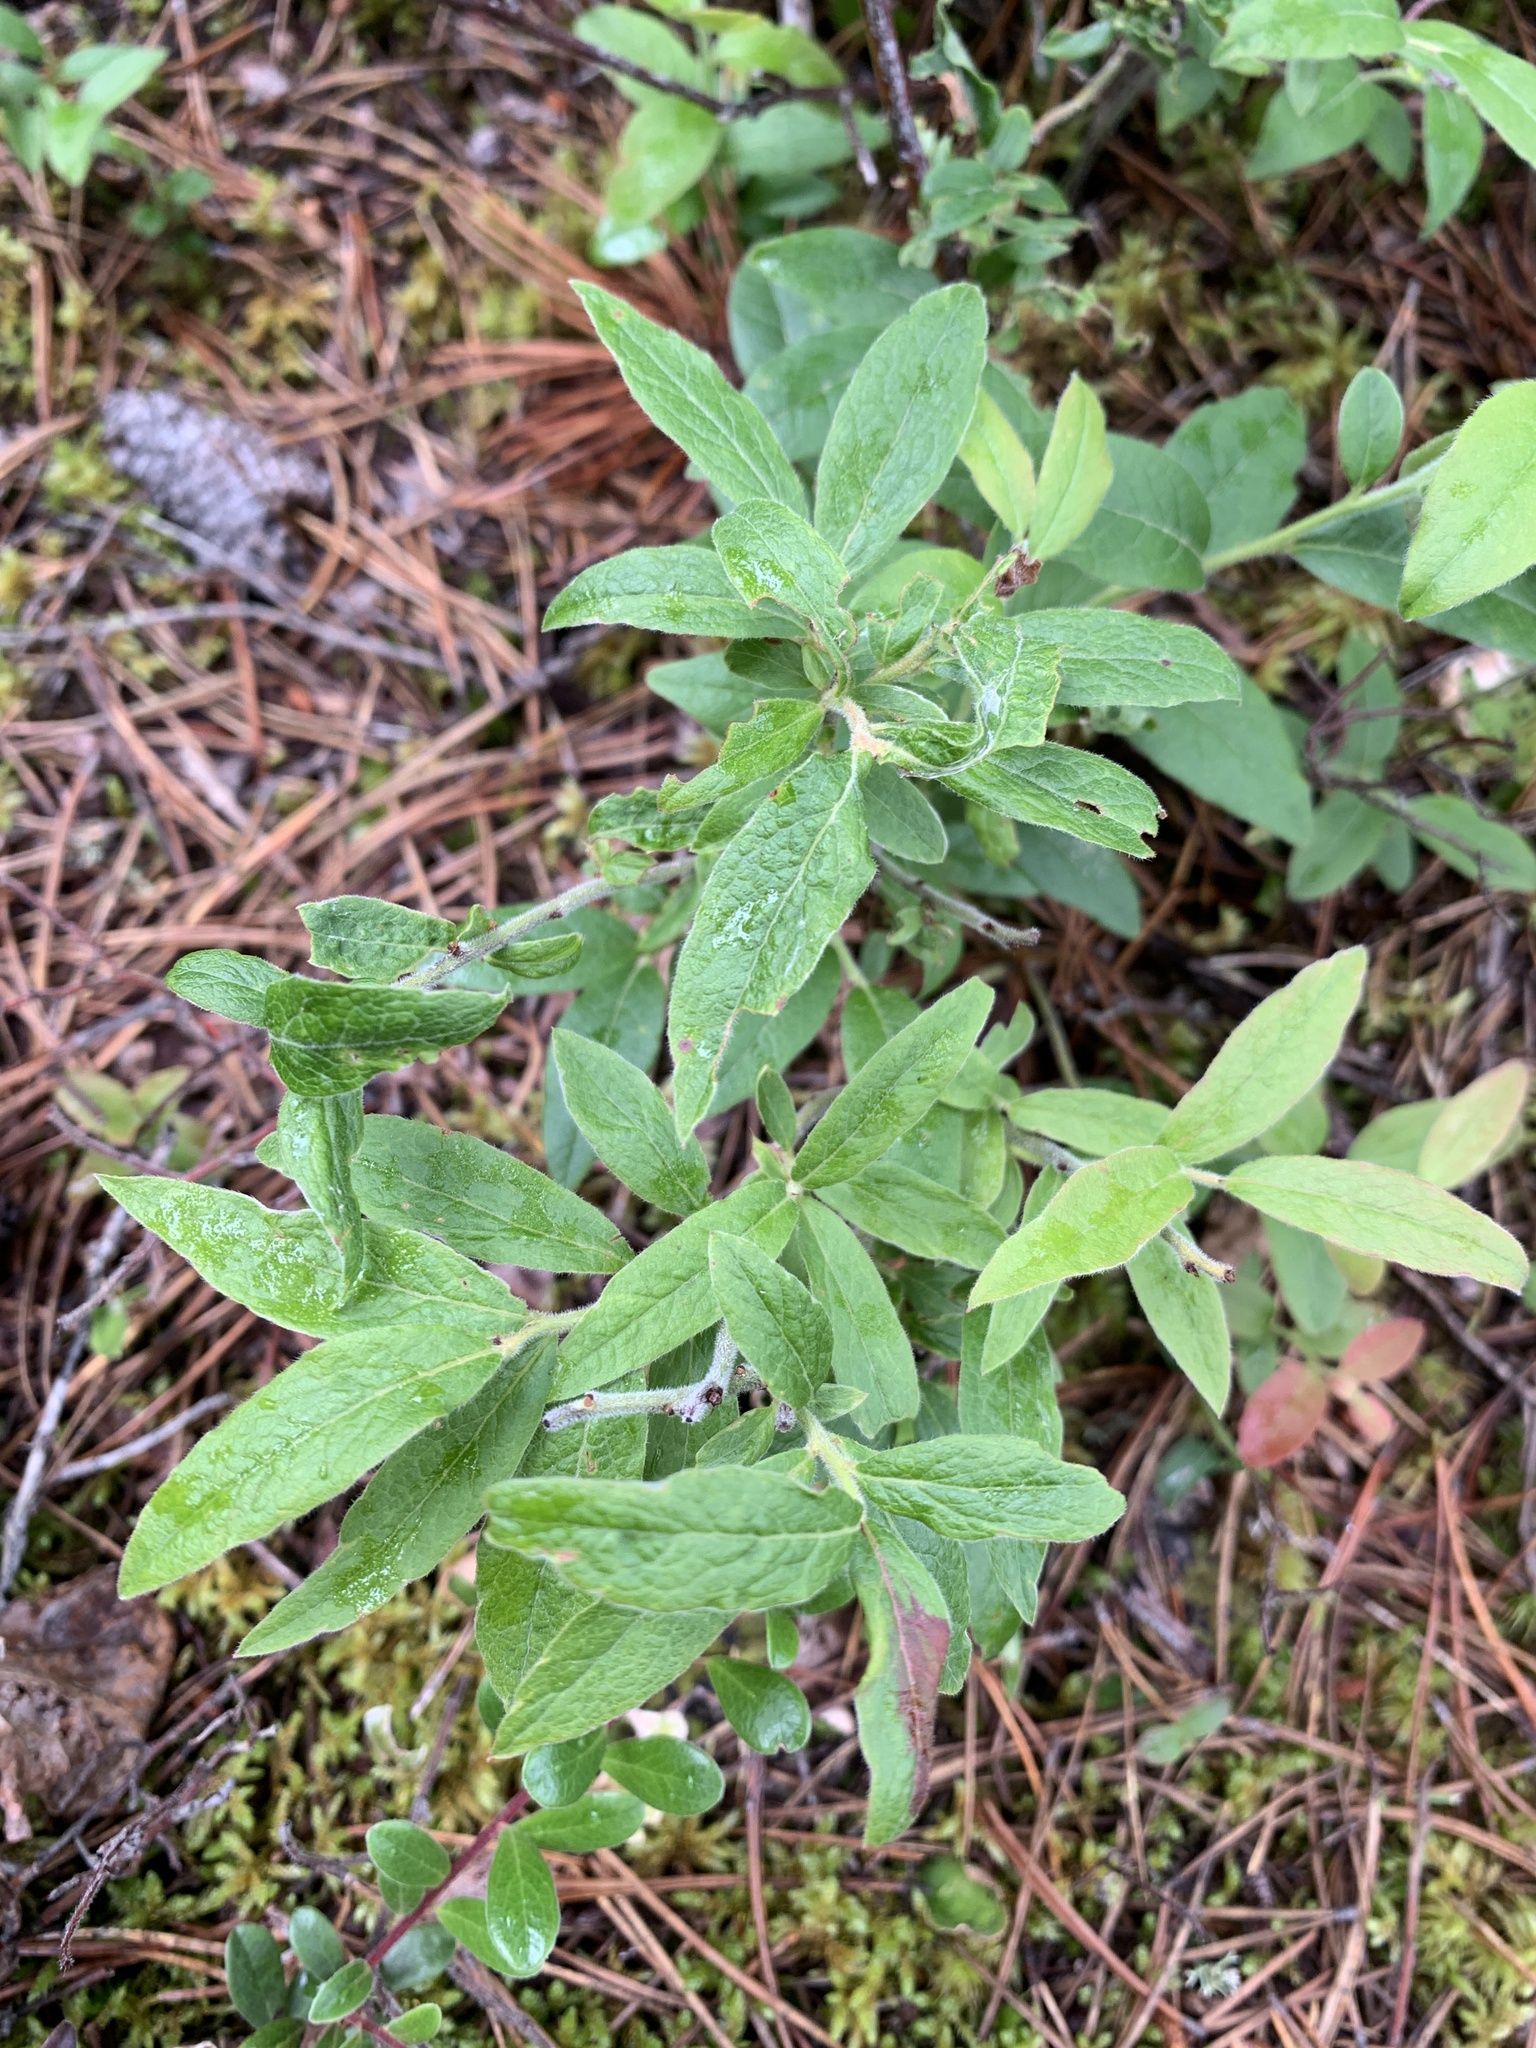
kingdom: Plantae
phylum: Tracheophyta
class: Magnoliopsida
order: Ericales
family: Ericaceae
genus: Vaccinium
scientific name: Vaccinium myrtilloides
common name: Canada blueberry
